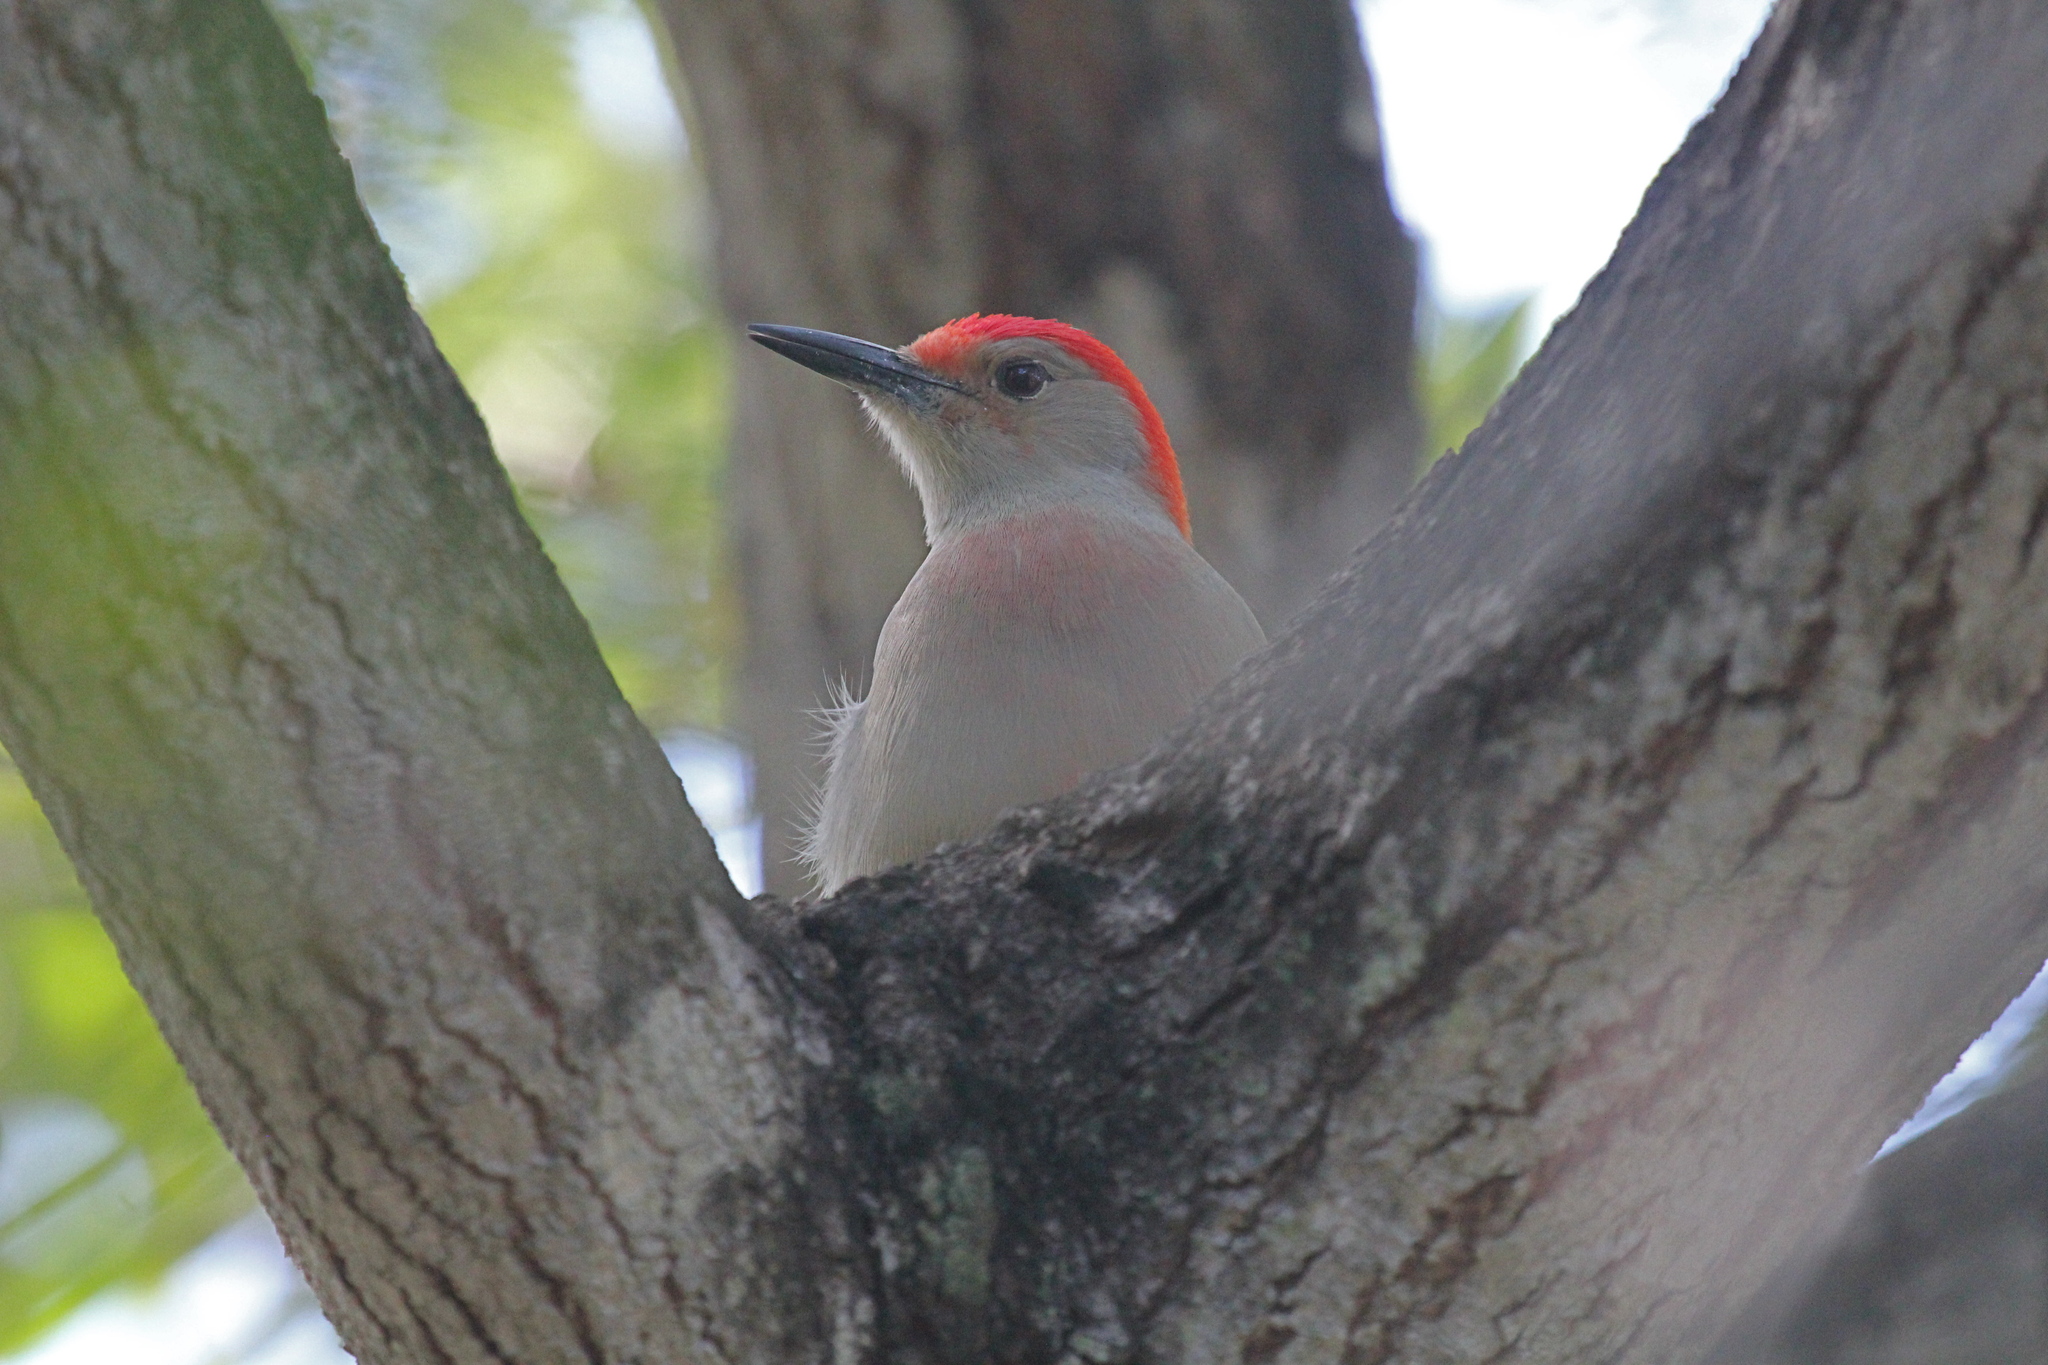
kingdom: Animalia
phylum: Chordata
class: Aves
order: Piciformes
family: Picidae
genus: Melanerpes
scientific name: Melanerpes carolinus
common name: Red-bellied woodpecker
